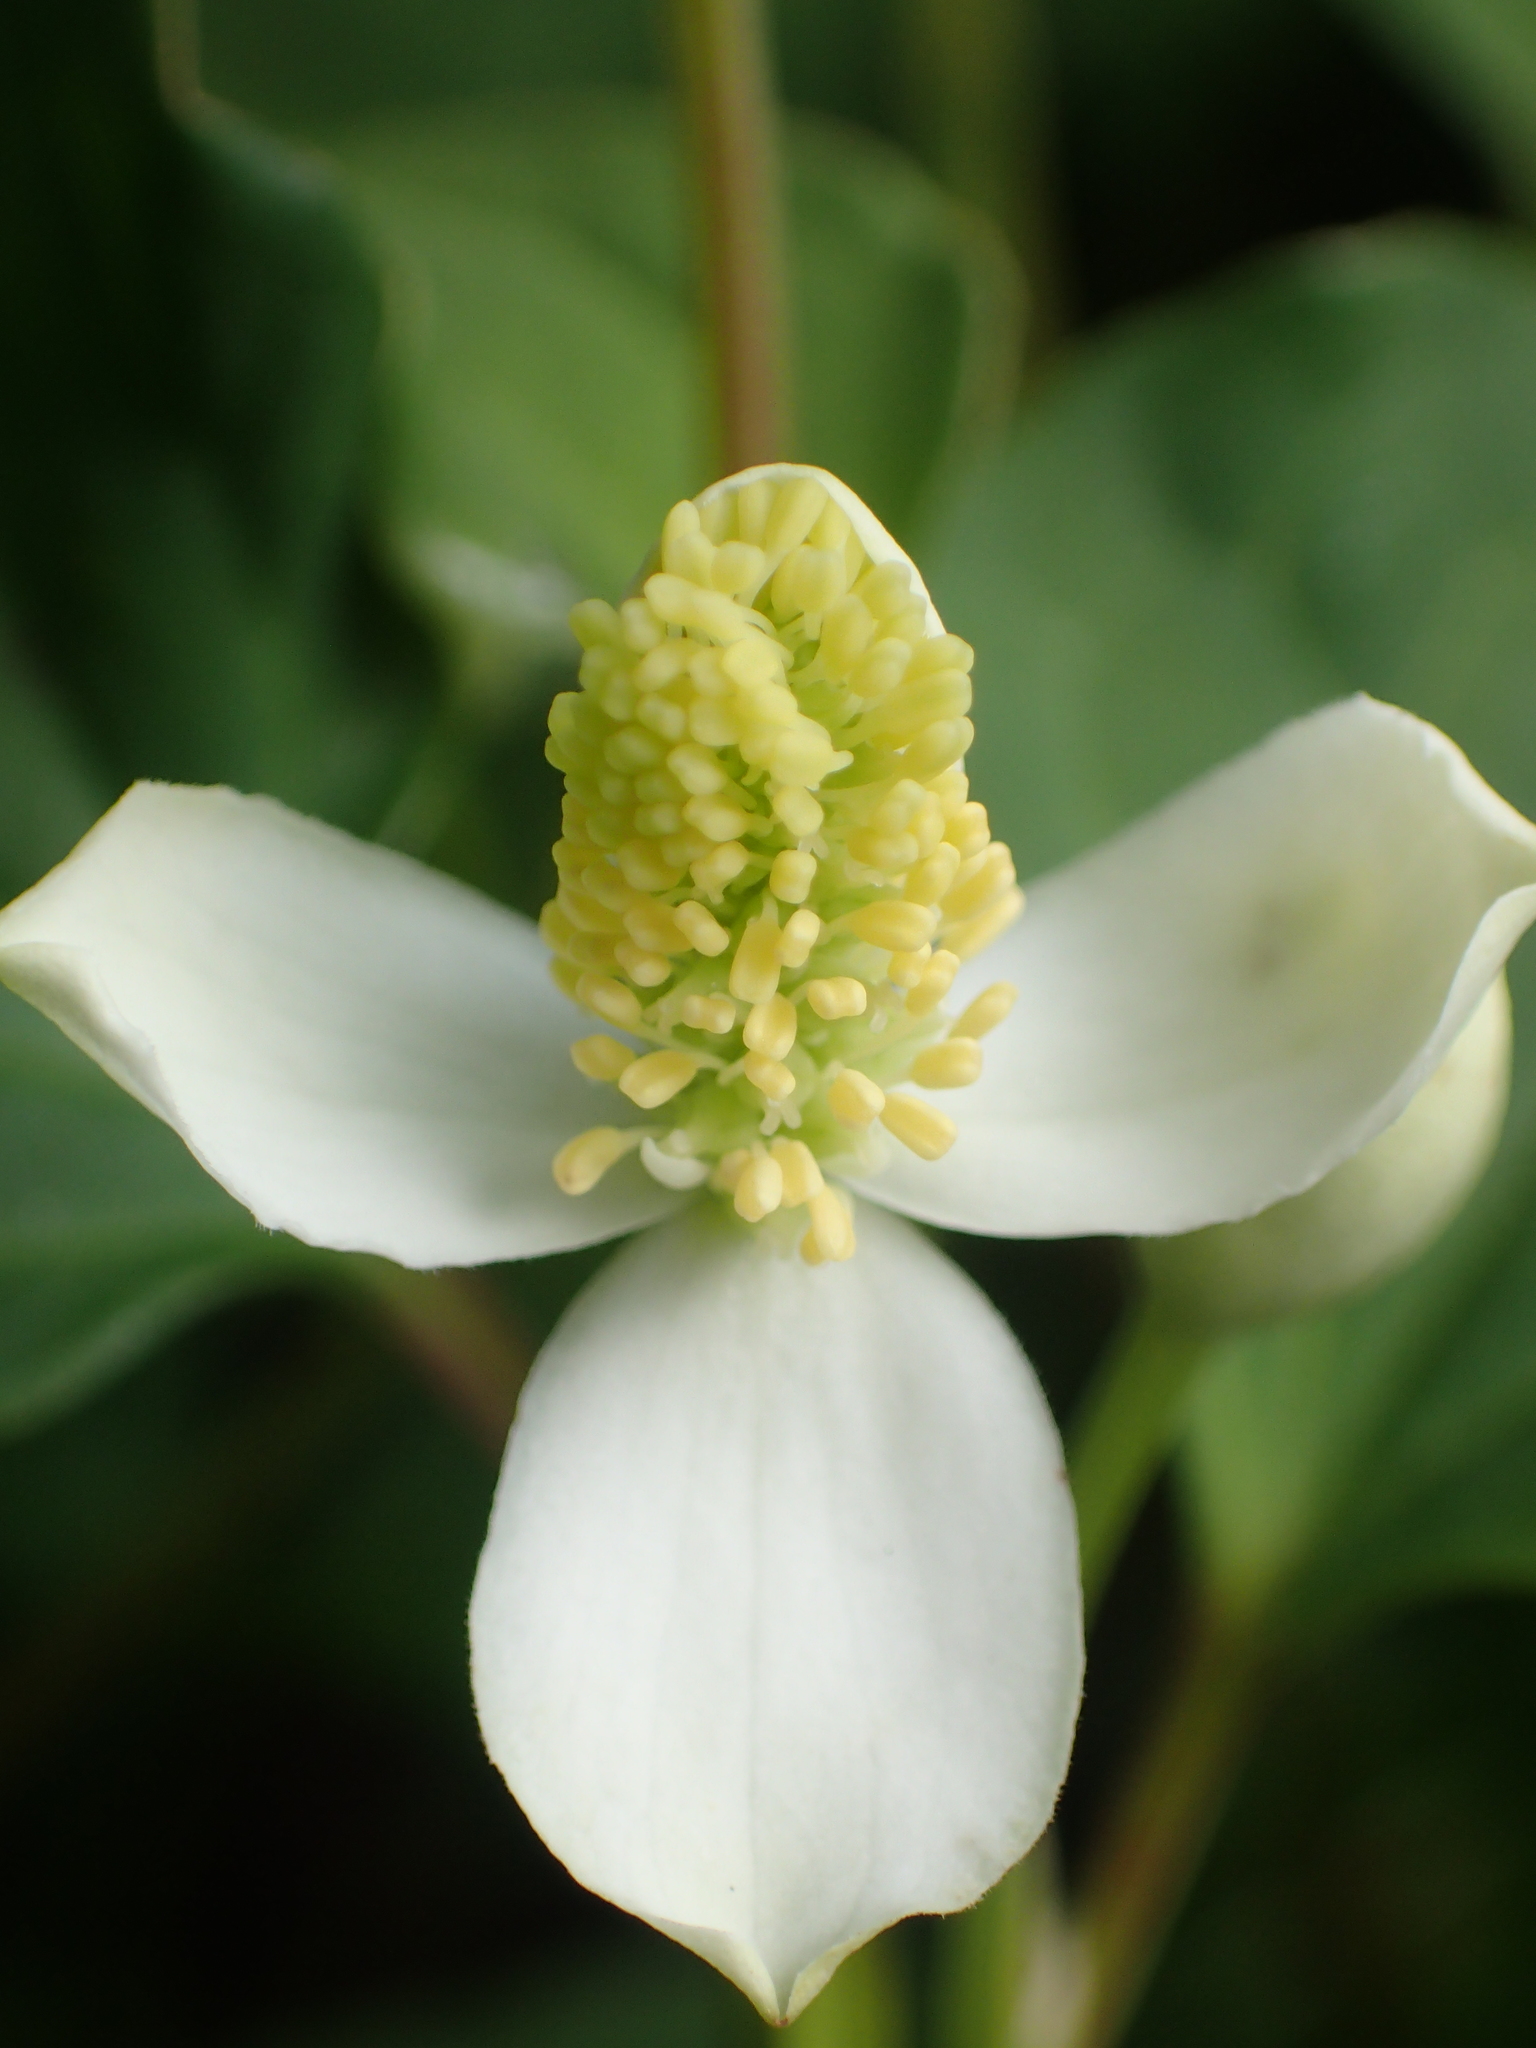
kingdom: Plantae
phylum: Tracheophyta
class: Magnoliopsida
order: Piperales
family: Saururaceae
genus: Houttuynia
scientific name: Houttuynia cordata
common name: Chameleon
